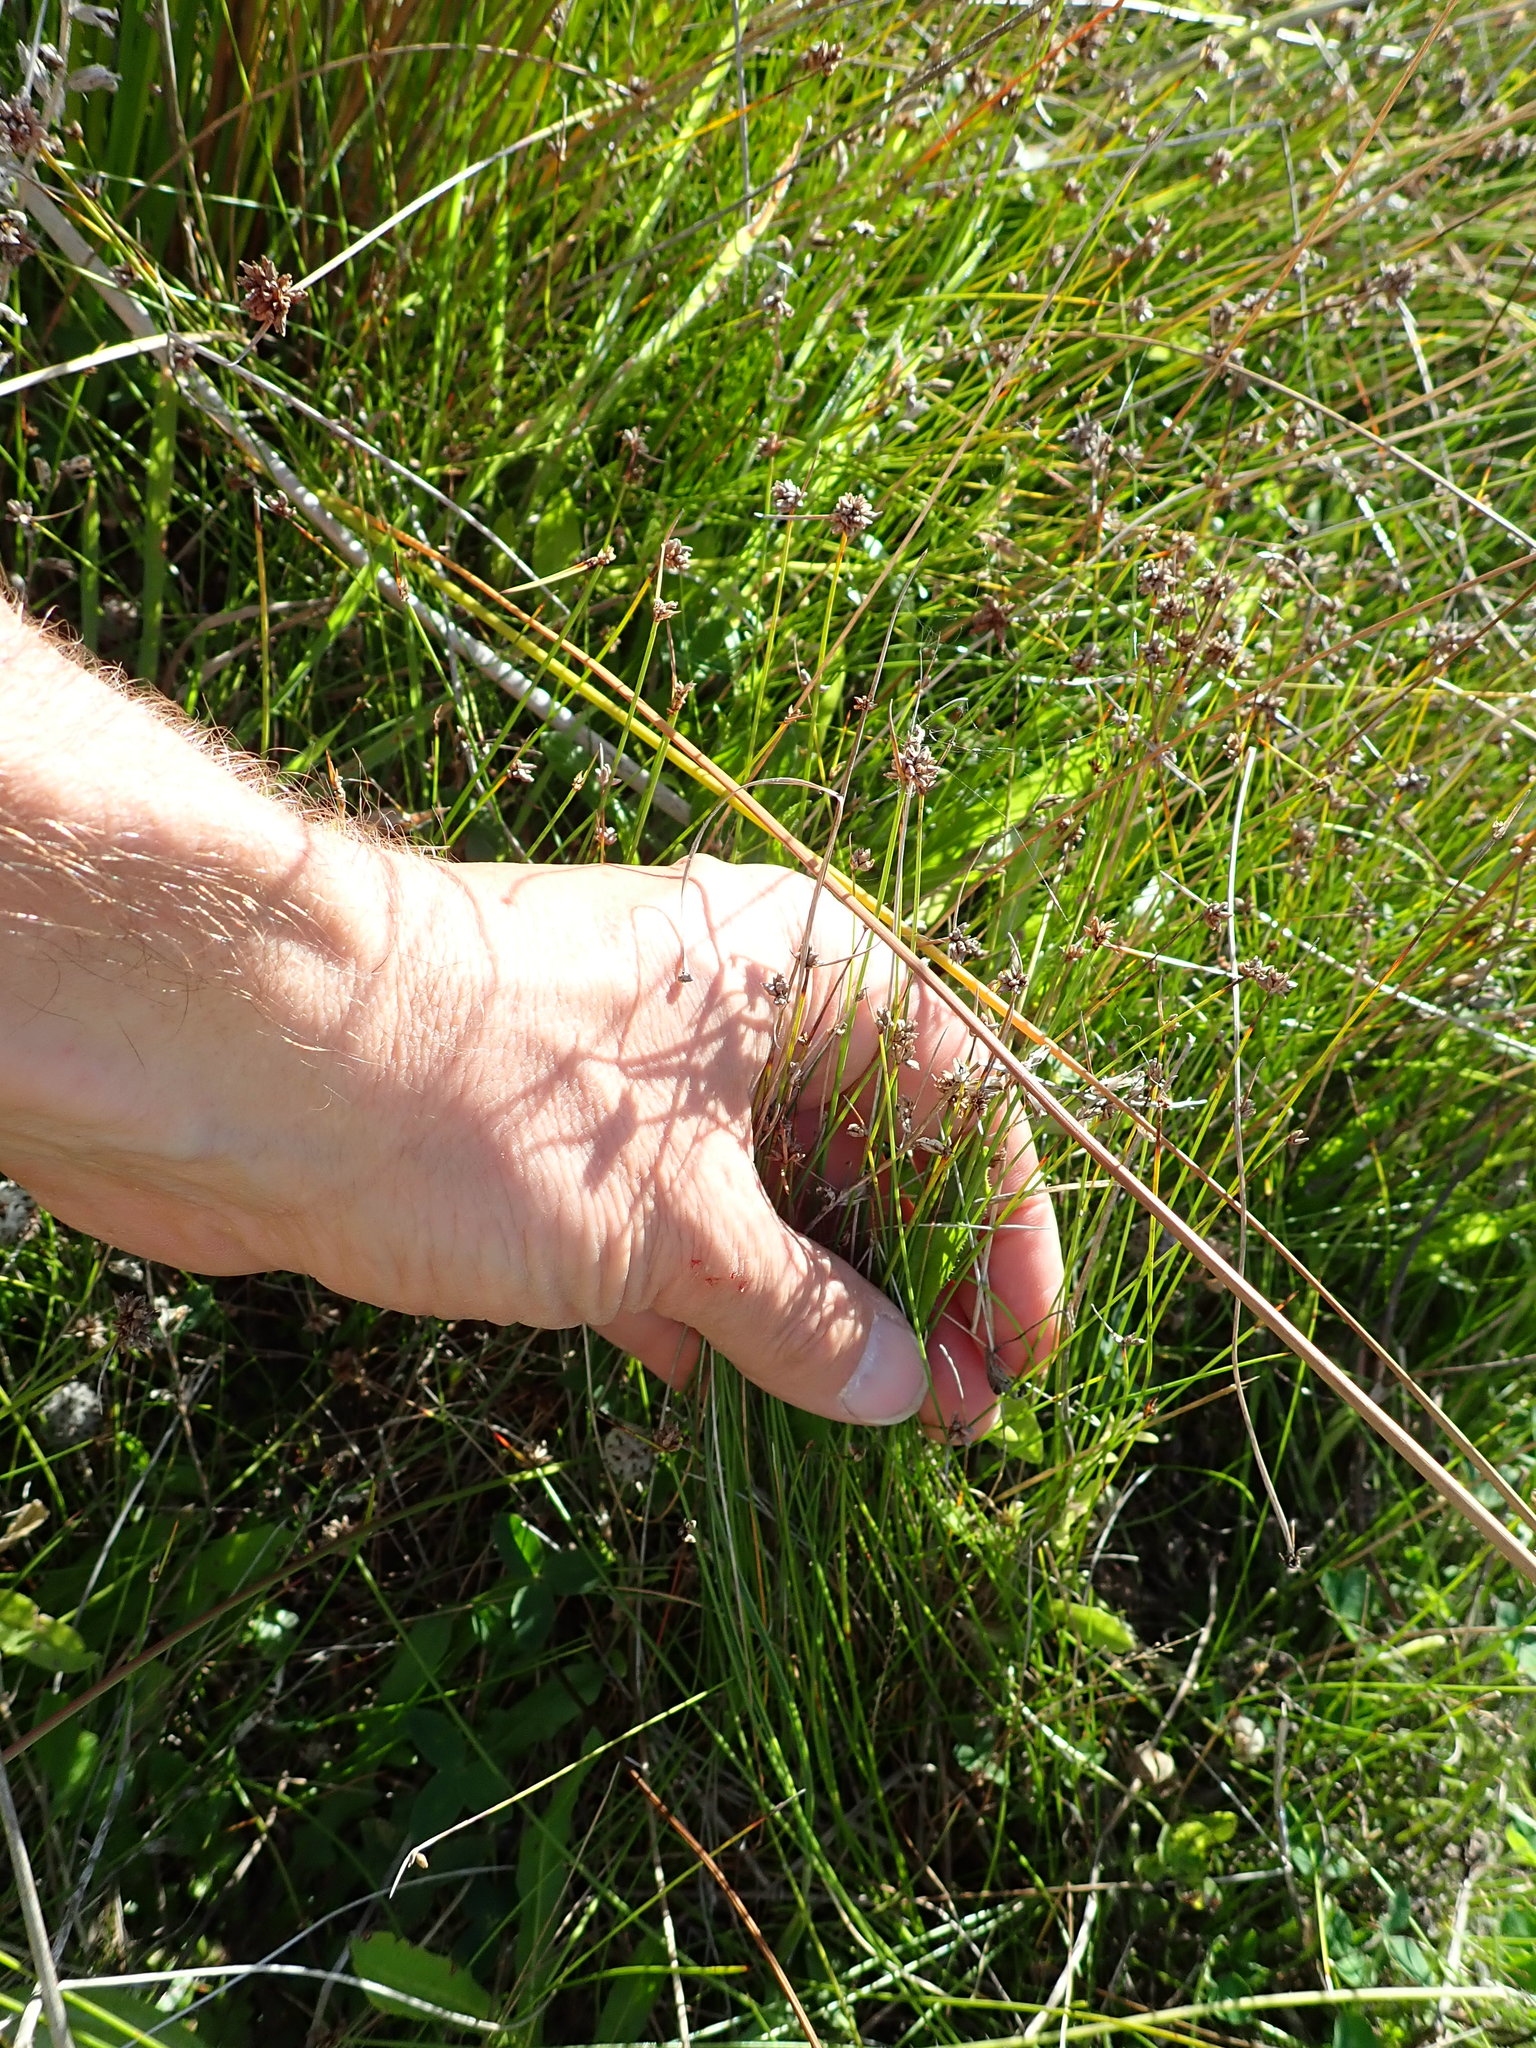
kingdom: Plantae
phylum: Tracheophyta
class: Liliopsida
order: Poales
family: Cyperaceae
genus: Schoenus
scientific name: Schoenus nitens
